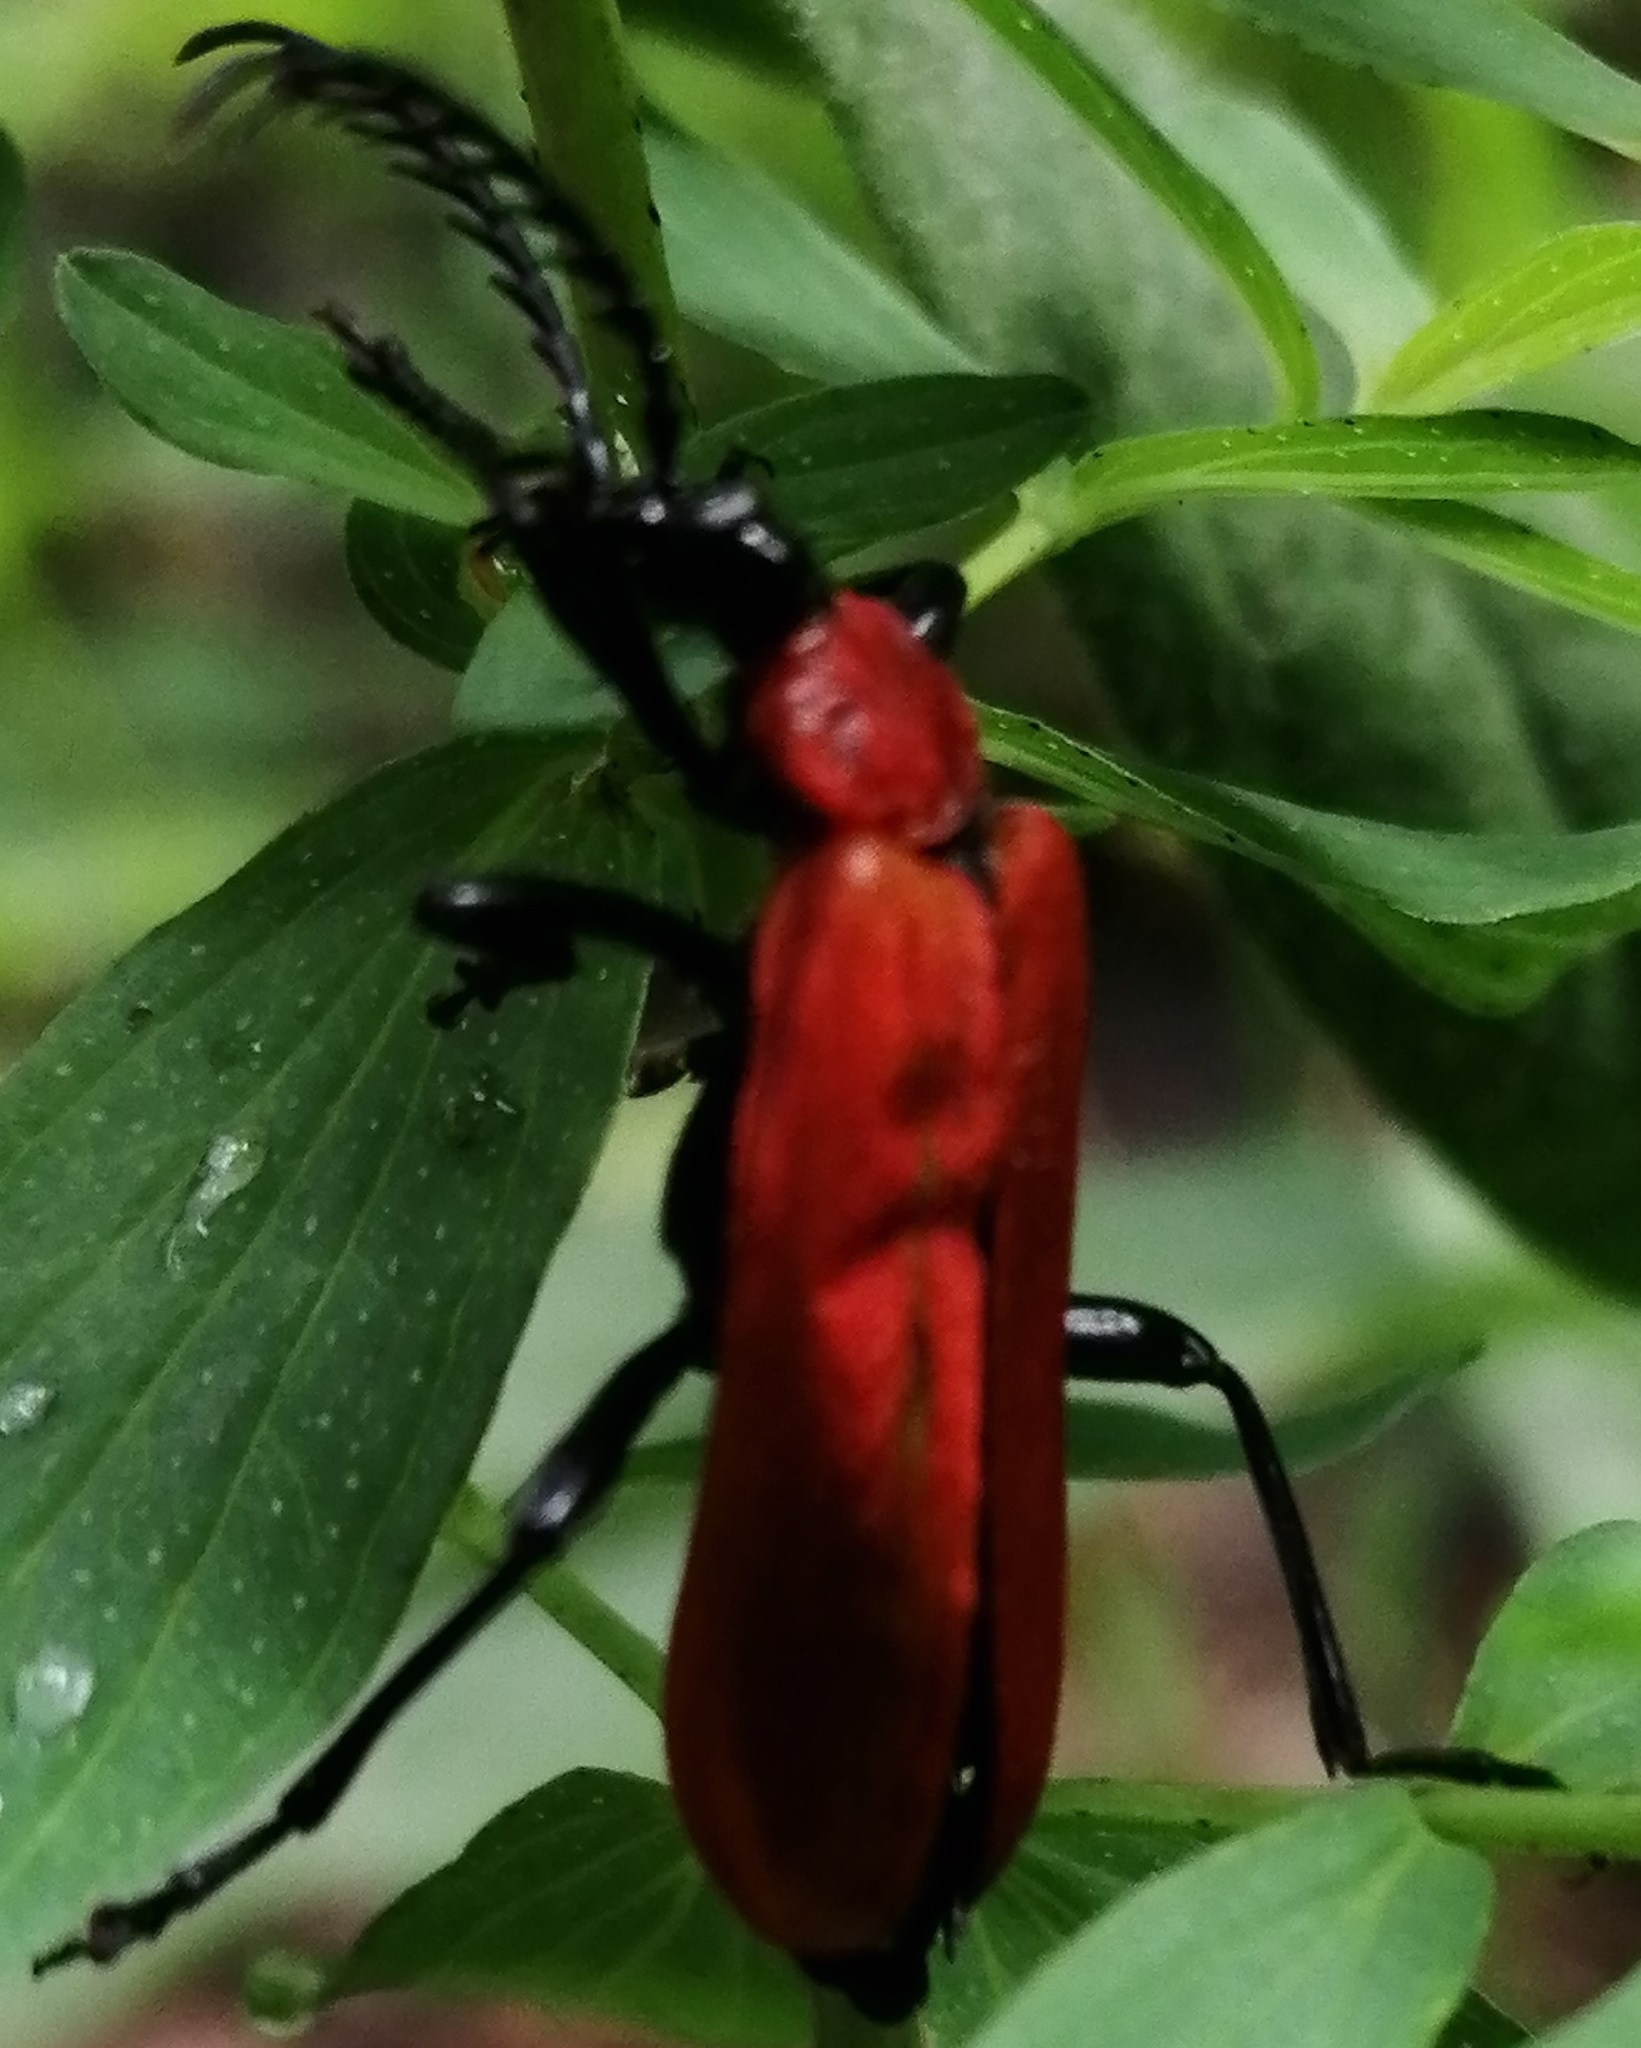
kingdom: Animalia
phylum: Arthropoda
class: Insecta
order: Coleoptera
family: Pyrochroidae
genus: Pyrochroa
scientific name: Pyrochroa coccinea
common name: Black-headed cardinal beetle
